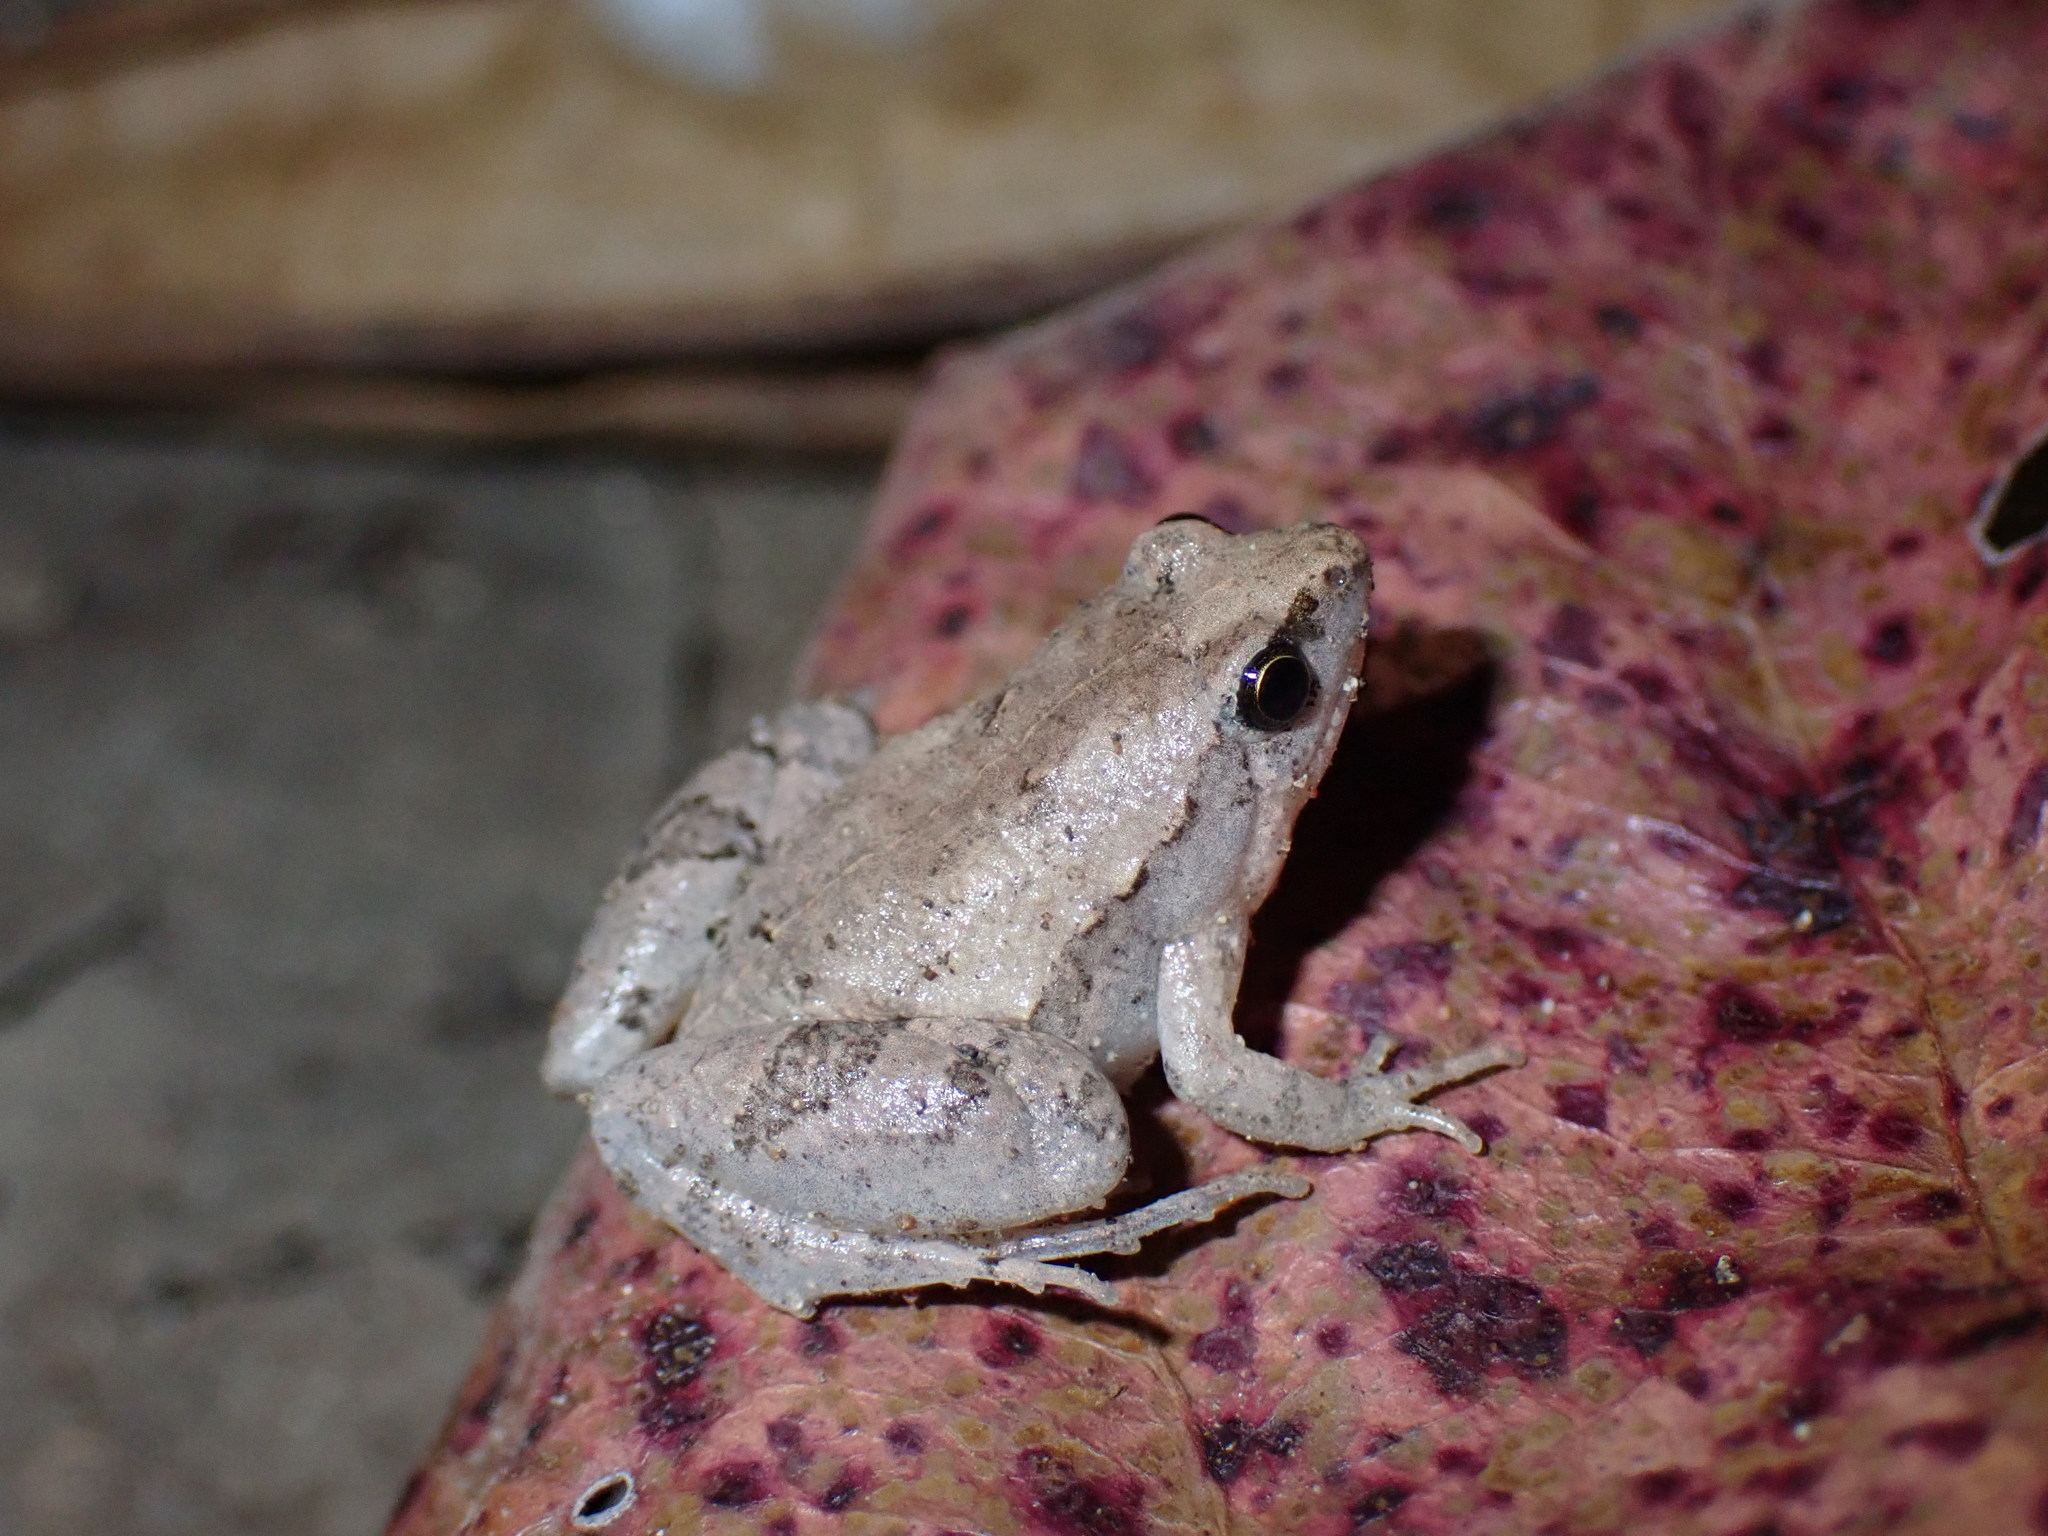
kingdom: Animalia
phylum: Chordata
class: Amphibia
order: Anura
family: Microhylidae
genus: Microhyla
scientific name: Microhyla mukhlesuri
